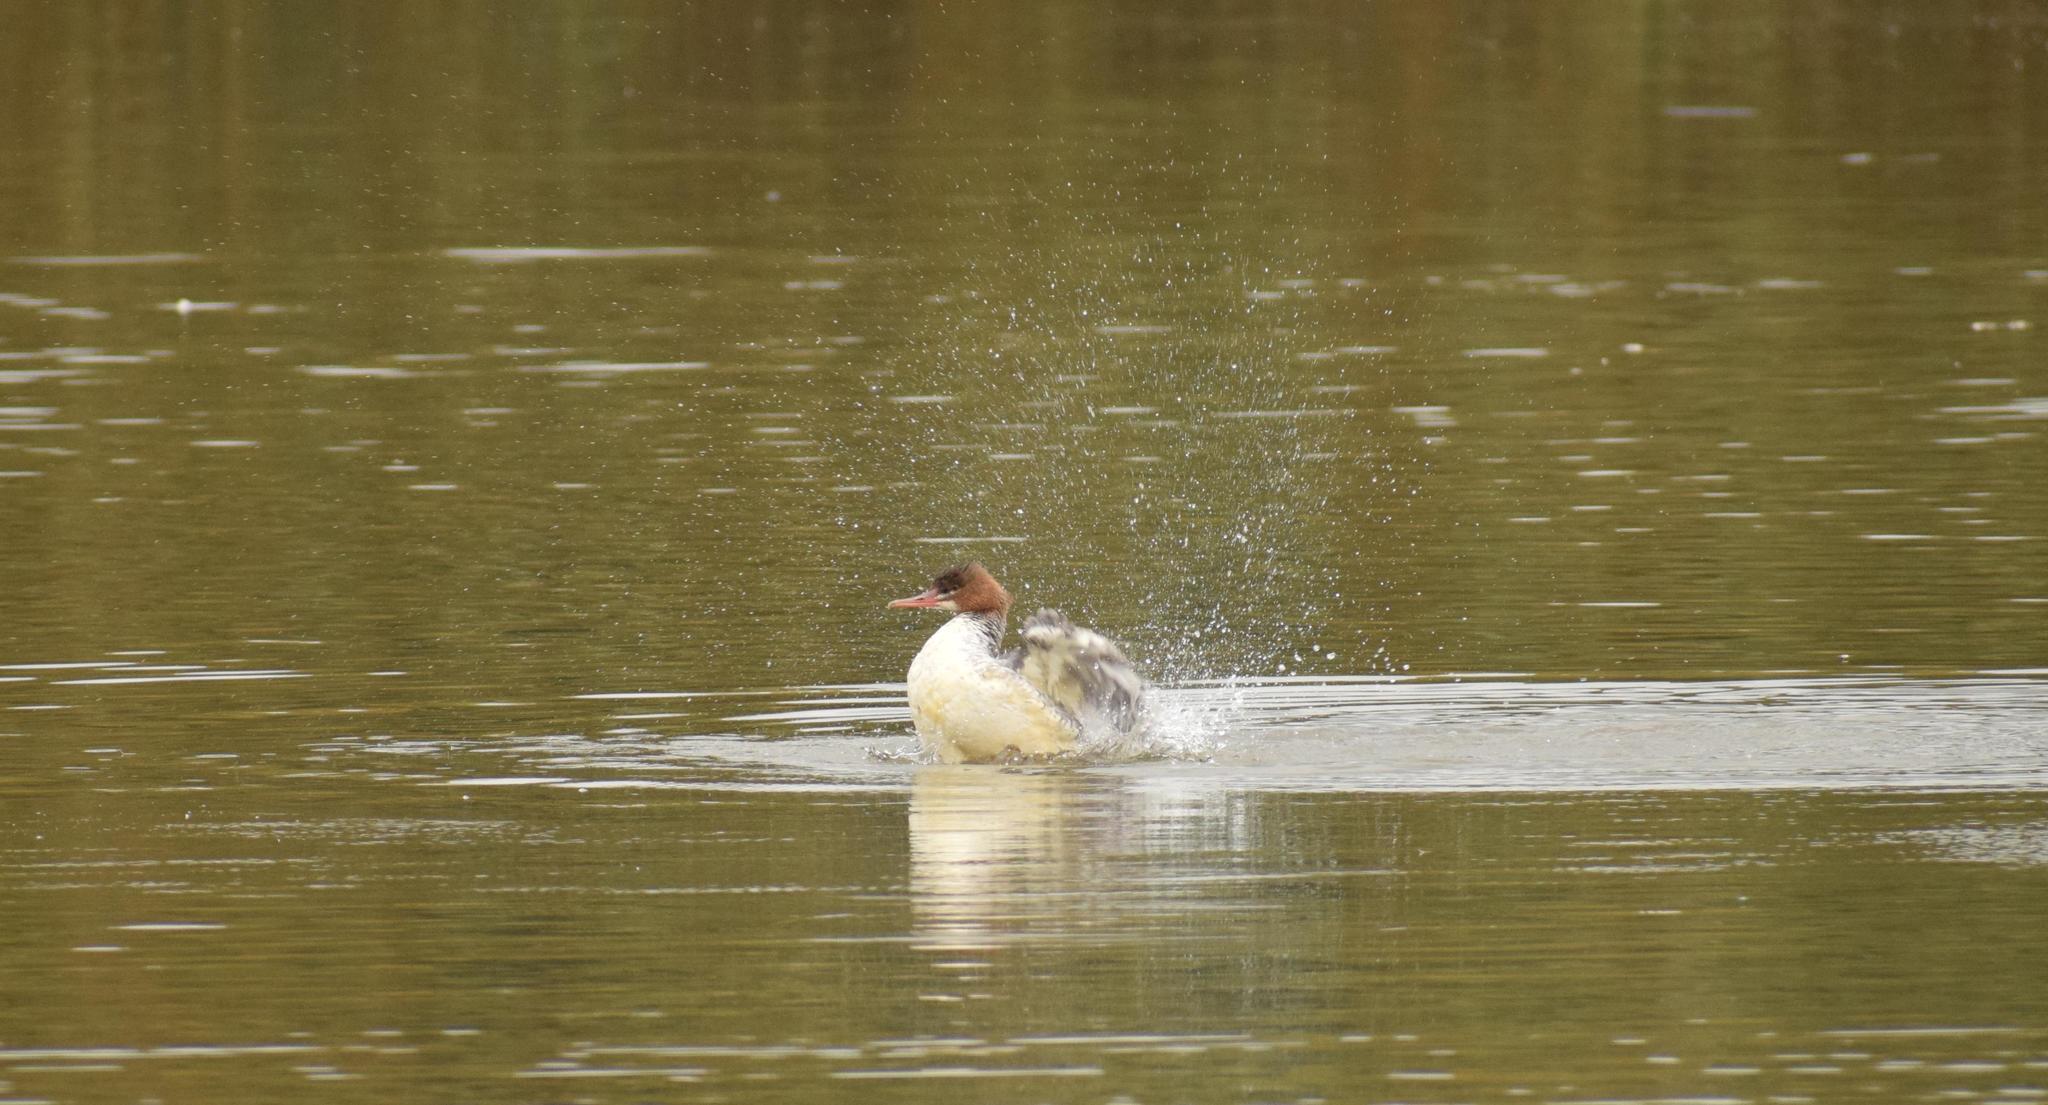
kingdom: Animalia
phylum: Chordata
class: Aves
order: Anseriformes
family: Anatidae
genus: Mergus
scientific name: Mergus merganser
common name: Common merganser
